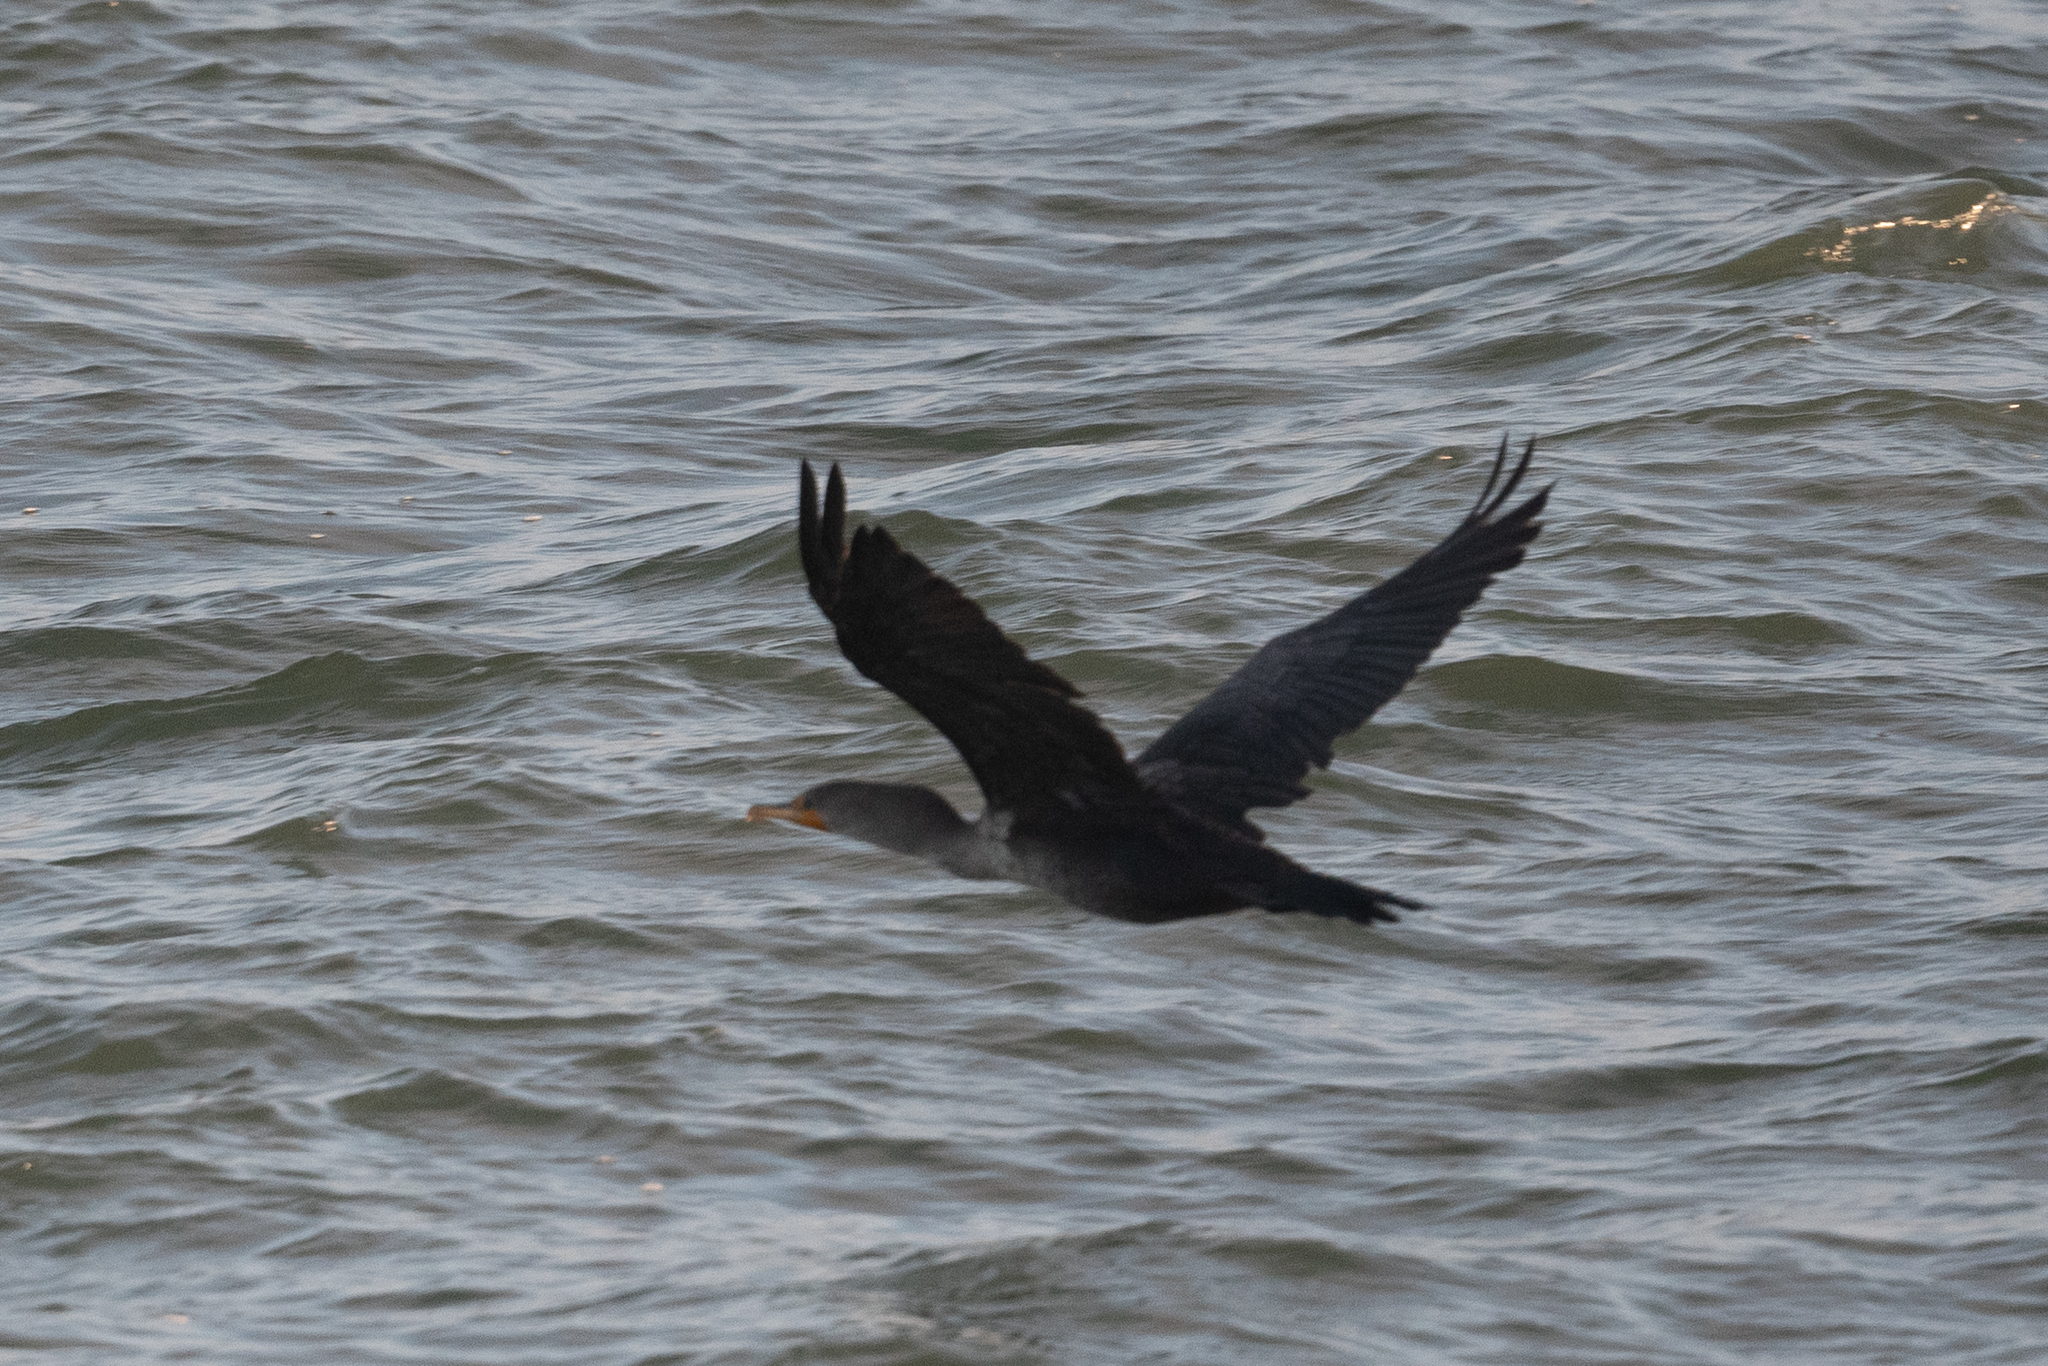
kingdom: Animalia
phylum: Chordata
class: Aves
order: Suliformes
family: Phalacrocoracidae
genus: Phalacrocorax
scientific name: Phalacrocorax auritus
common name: Double-crested cormorant
